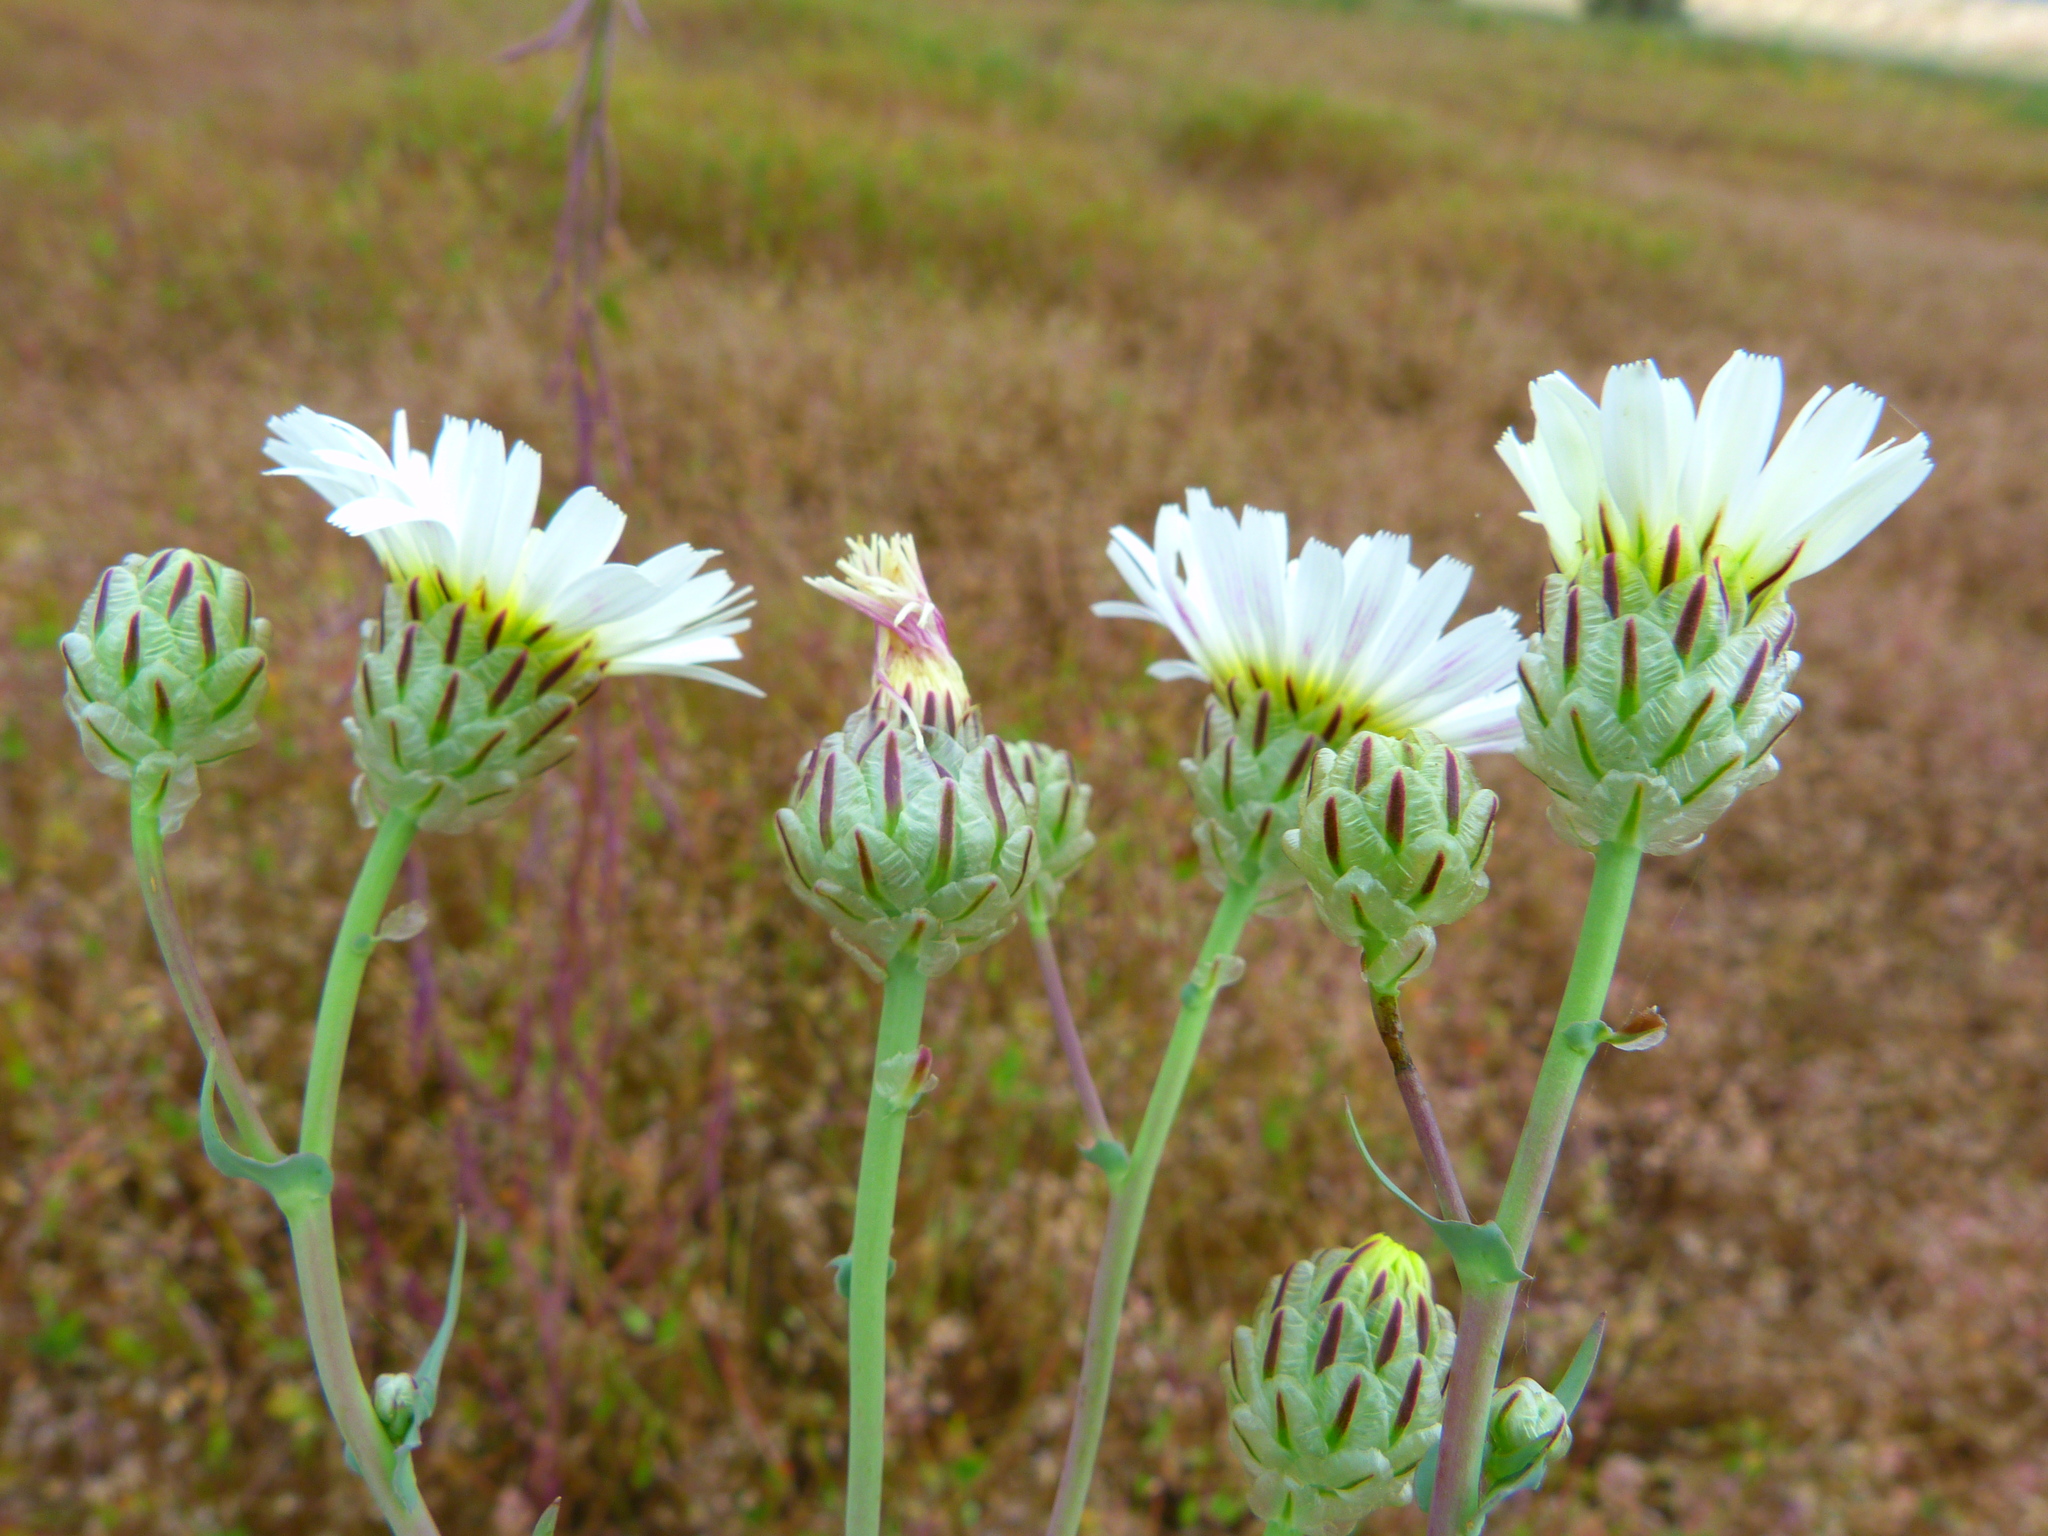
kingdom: Plantae
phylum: Tracheophyta
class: Magnoliopsida
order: Asterales
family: Asteraceae
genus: Malacothrix
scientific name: Malacothrix coulteri
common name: Snake's-head
